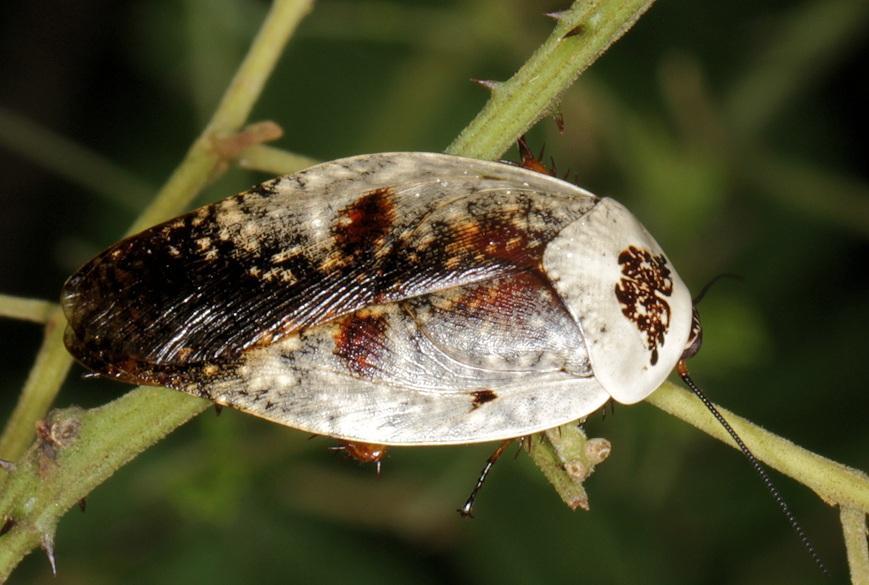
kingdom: Animalia
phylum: Arthropoda
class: Insecta
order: Blattodea
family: Blaberidae
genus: Gyna
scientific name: Gyna caffrorum
